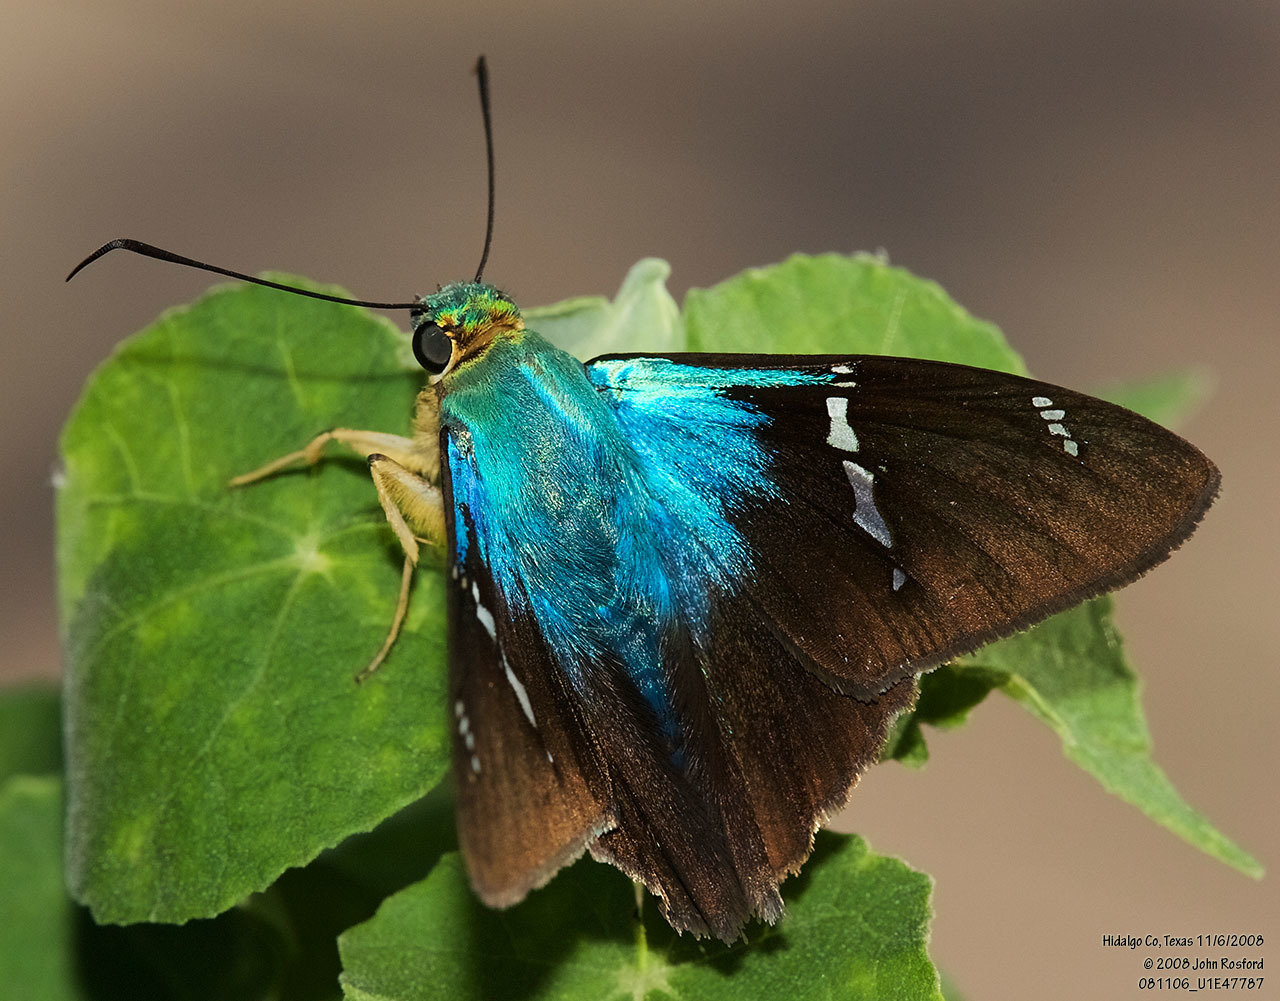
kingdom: Animalia
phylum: Arthropoda
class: Insecta
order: Lepidoptera
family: Hesperiidae
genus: Astraptes
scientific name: Astraptes fulgerator
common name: Two-barred flasher
